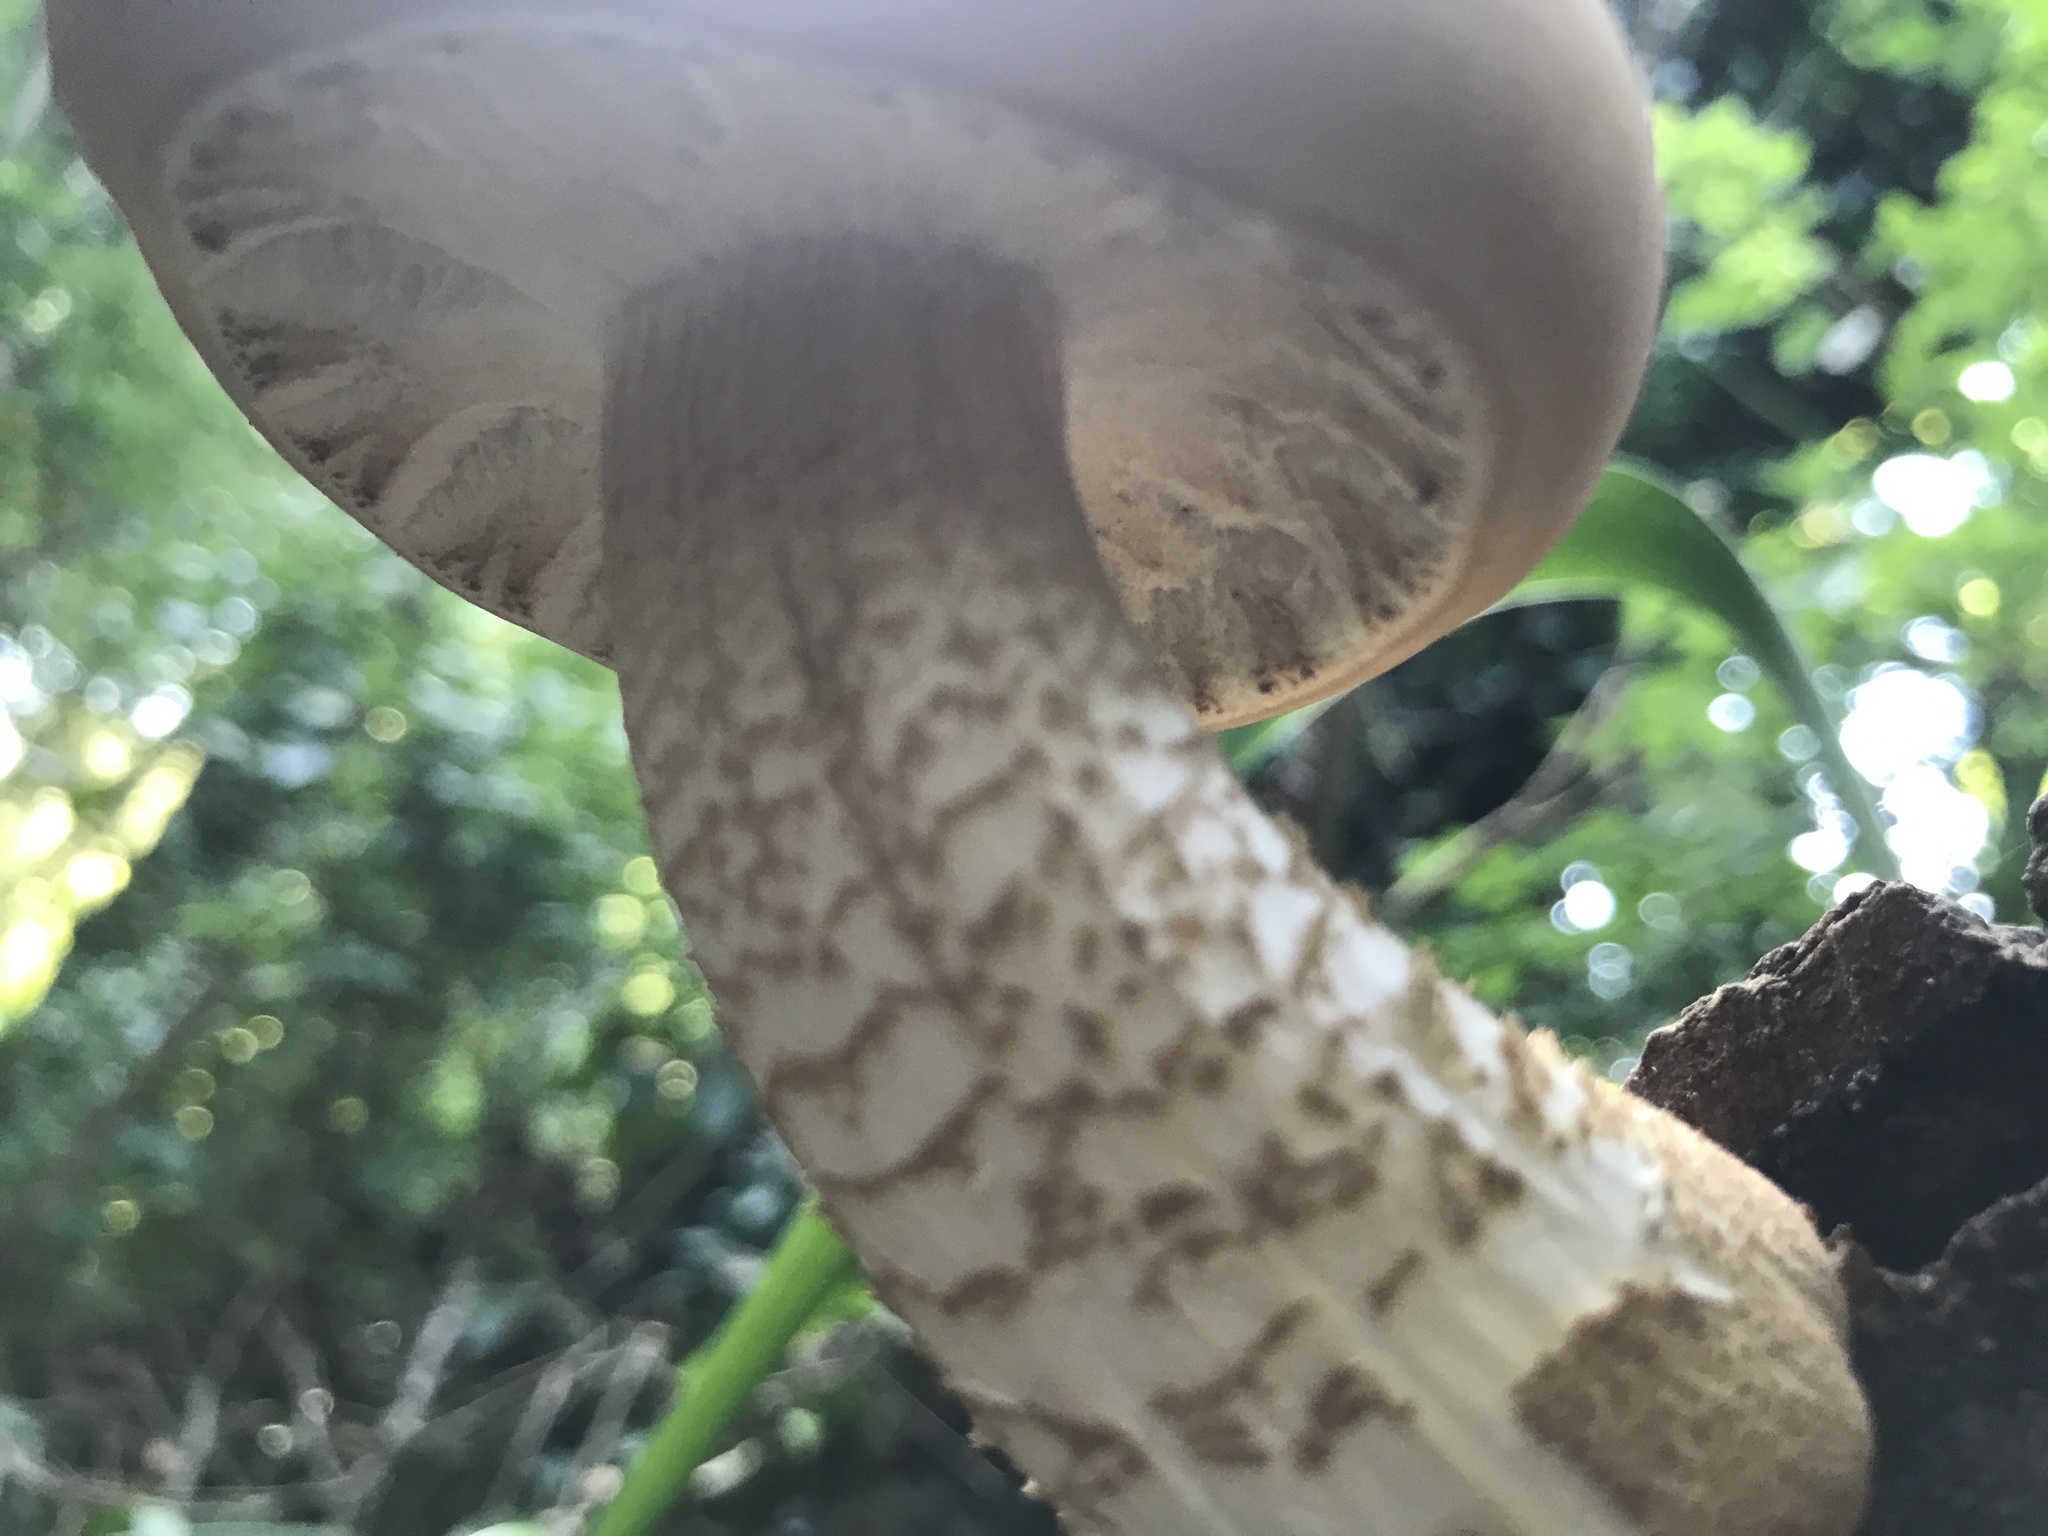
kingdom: Fungi
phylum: Basidiomycota
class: Agaricomycetes
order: Agaricales
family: Tubariaceae
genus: Cyclocybe
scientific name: Cyclocybe parasitica
